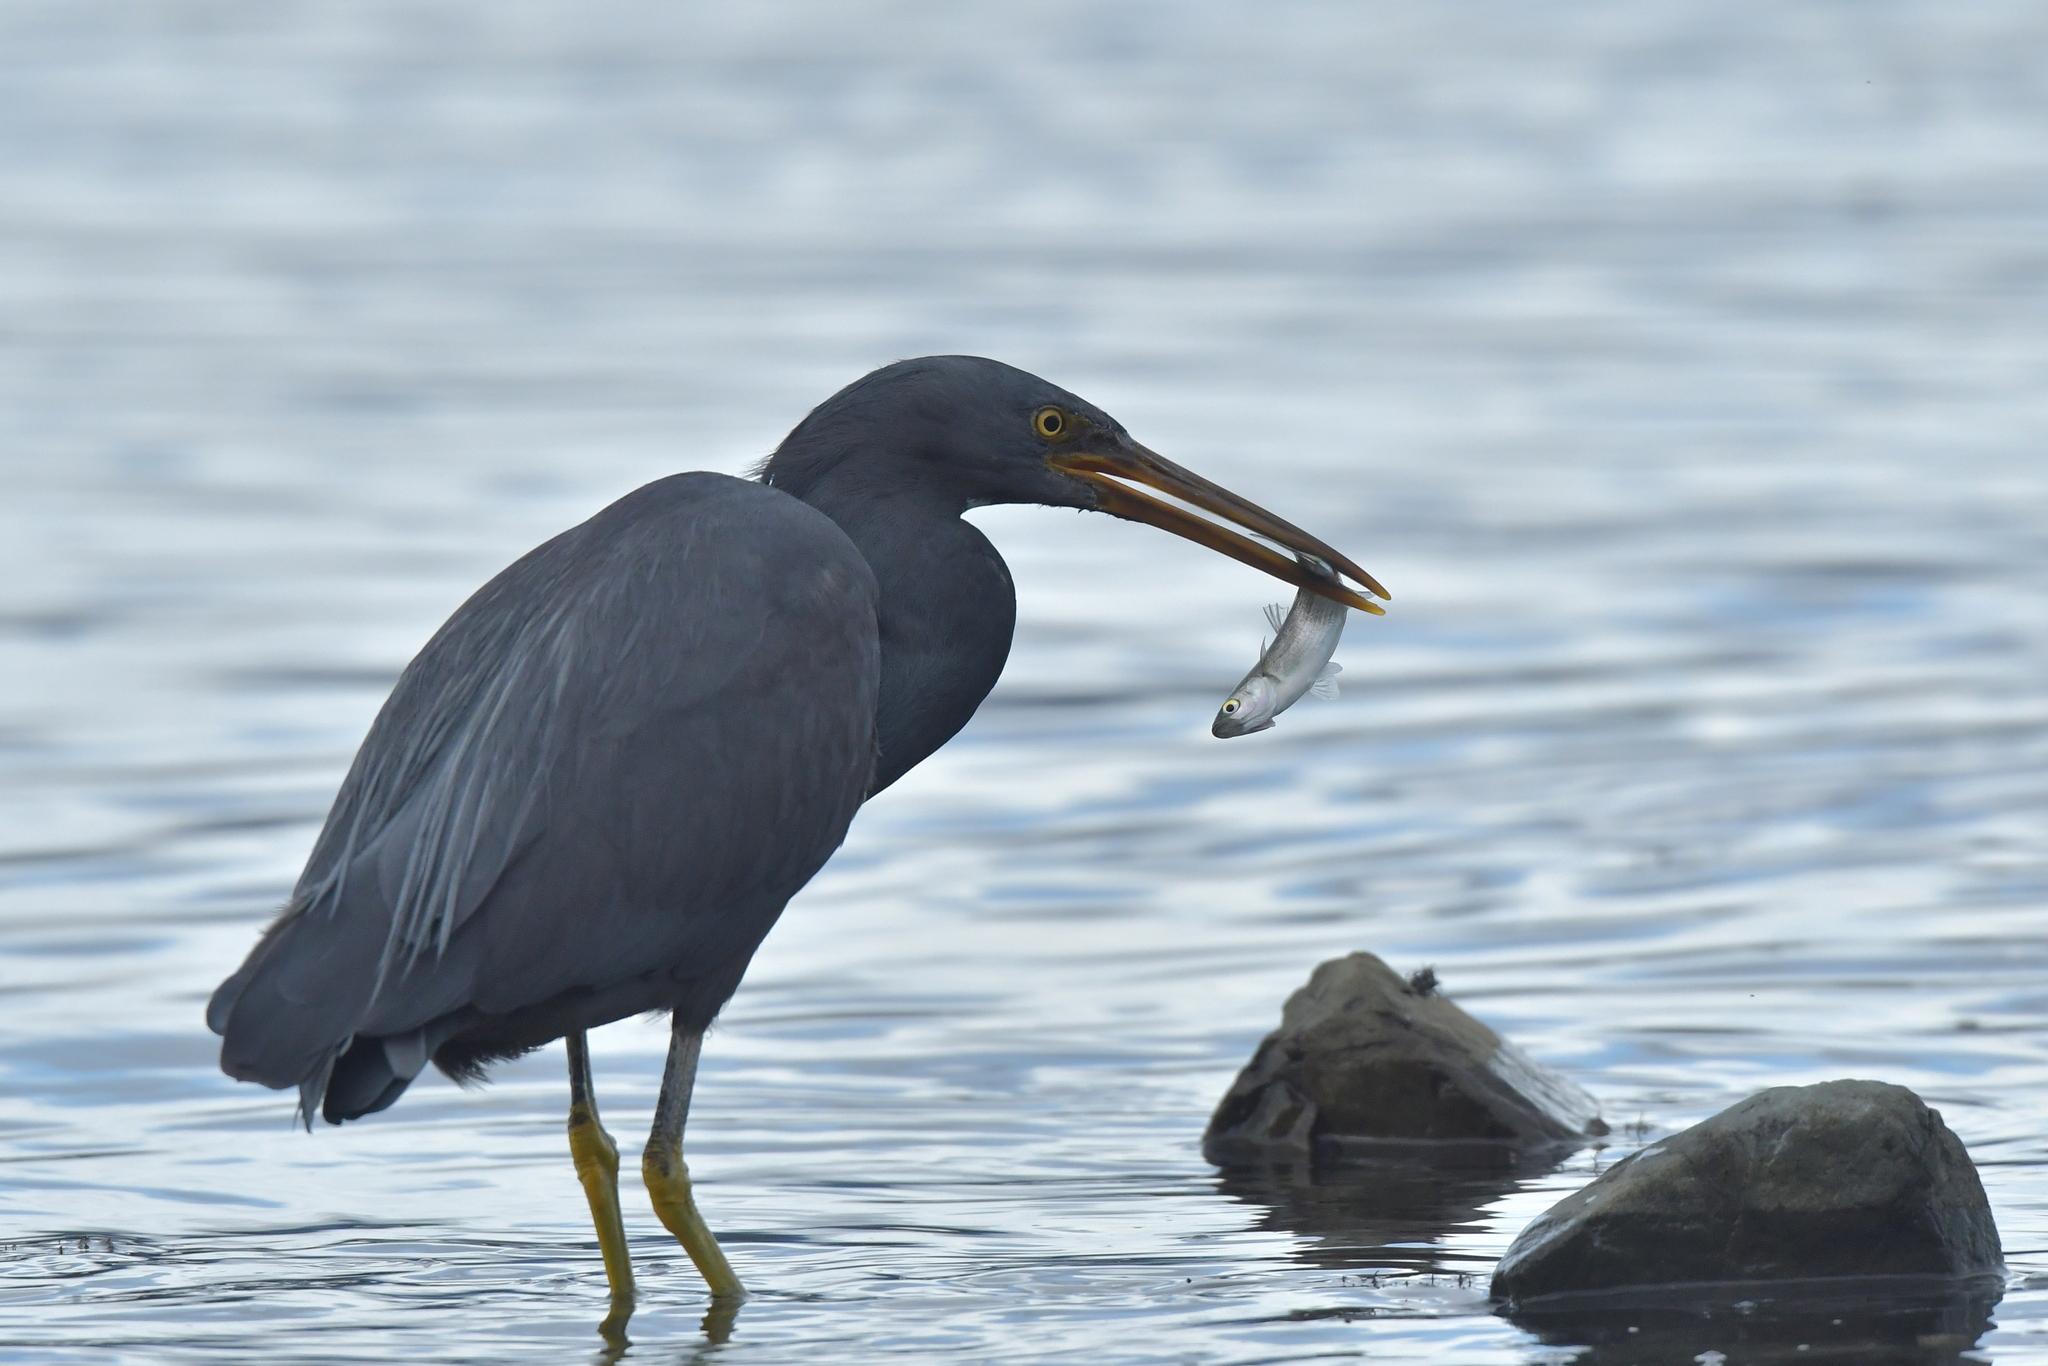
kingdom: Animalia
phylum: Chordata
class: Aves
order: Pelecaniformes
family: Ardeidae
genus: Egretta
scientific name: Egretta sacra
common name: Pacific reef heron
